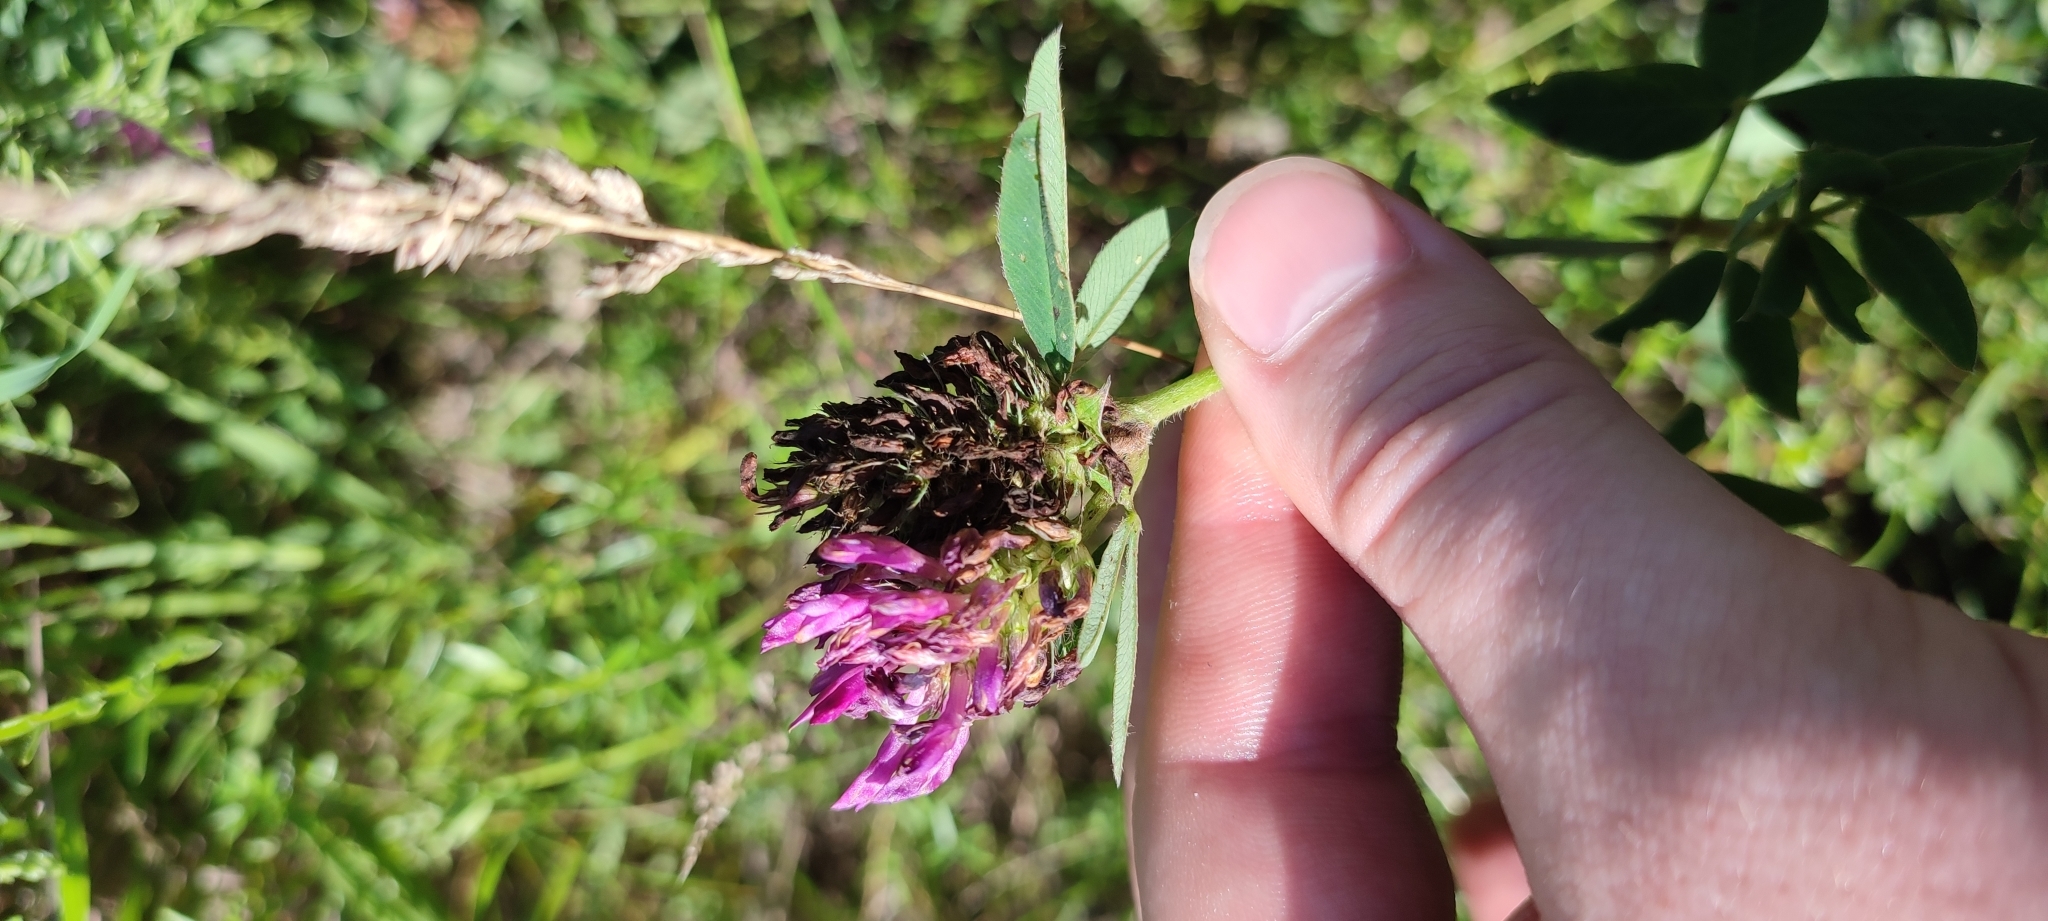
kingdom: Plantae
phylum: Tracheophyta
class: Magnoliopsida
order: Fabales
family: Fabaceae
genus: Trifolium
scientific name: Trifolium medium
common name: Zigzag clover
